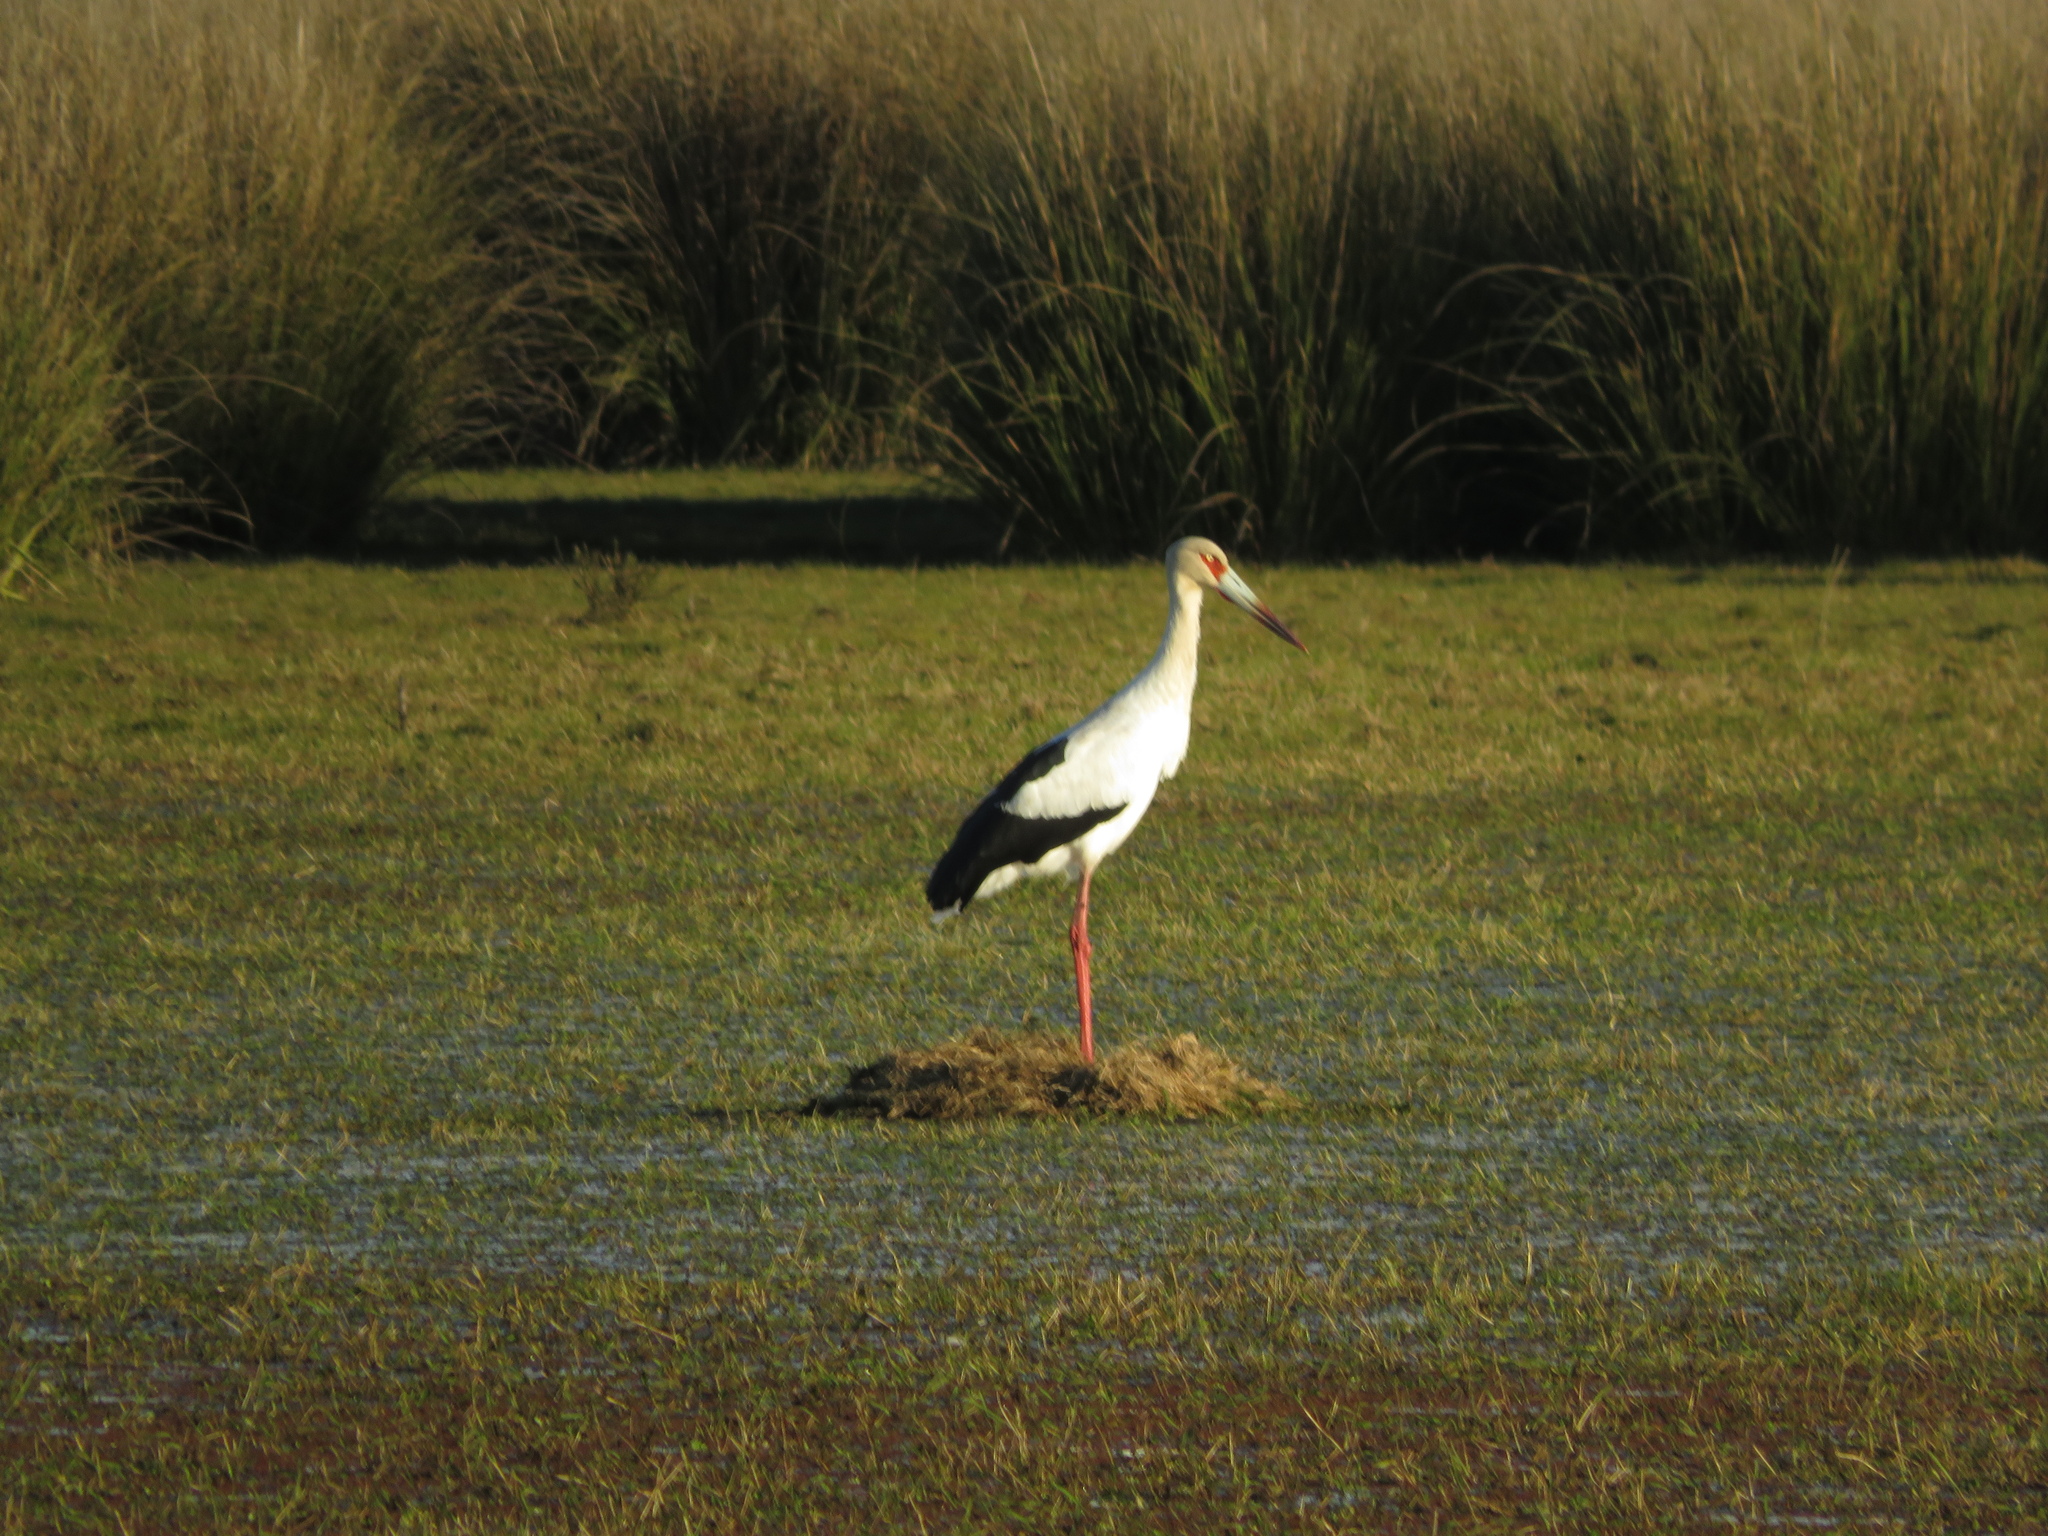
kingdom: Animalia
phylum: Chordata
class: Aves
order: Ciconiiformes
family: Ciconiidae
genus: Ciconia
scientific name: Ciconia maguari
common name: Maguari stork
